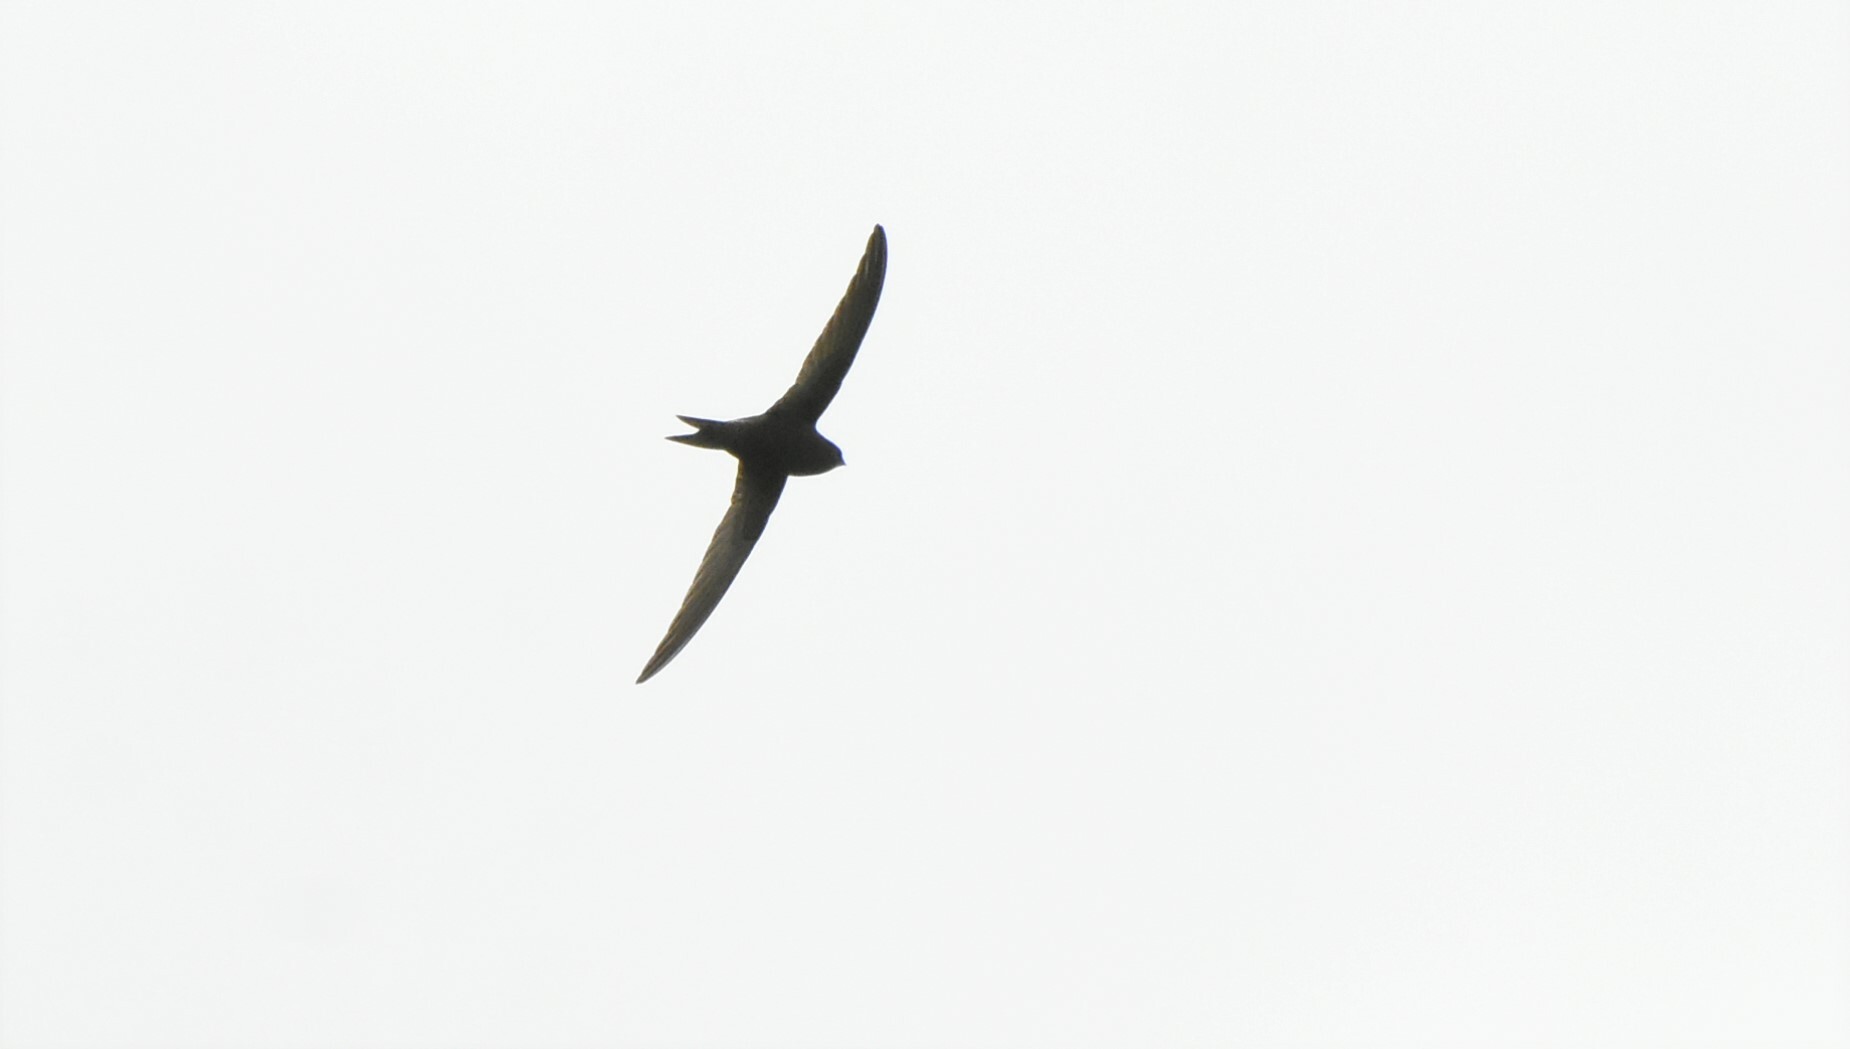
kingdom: Animalia
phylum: Chordata
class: Aves
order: Apodiformes
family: Apodidae
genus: Apus
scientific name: Apus apus
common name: Common swift
